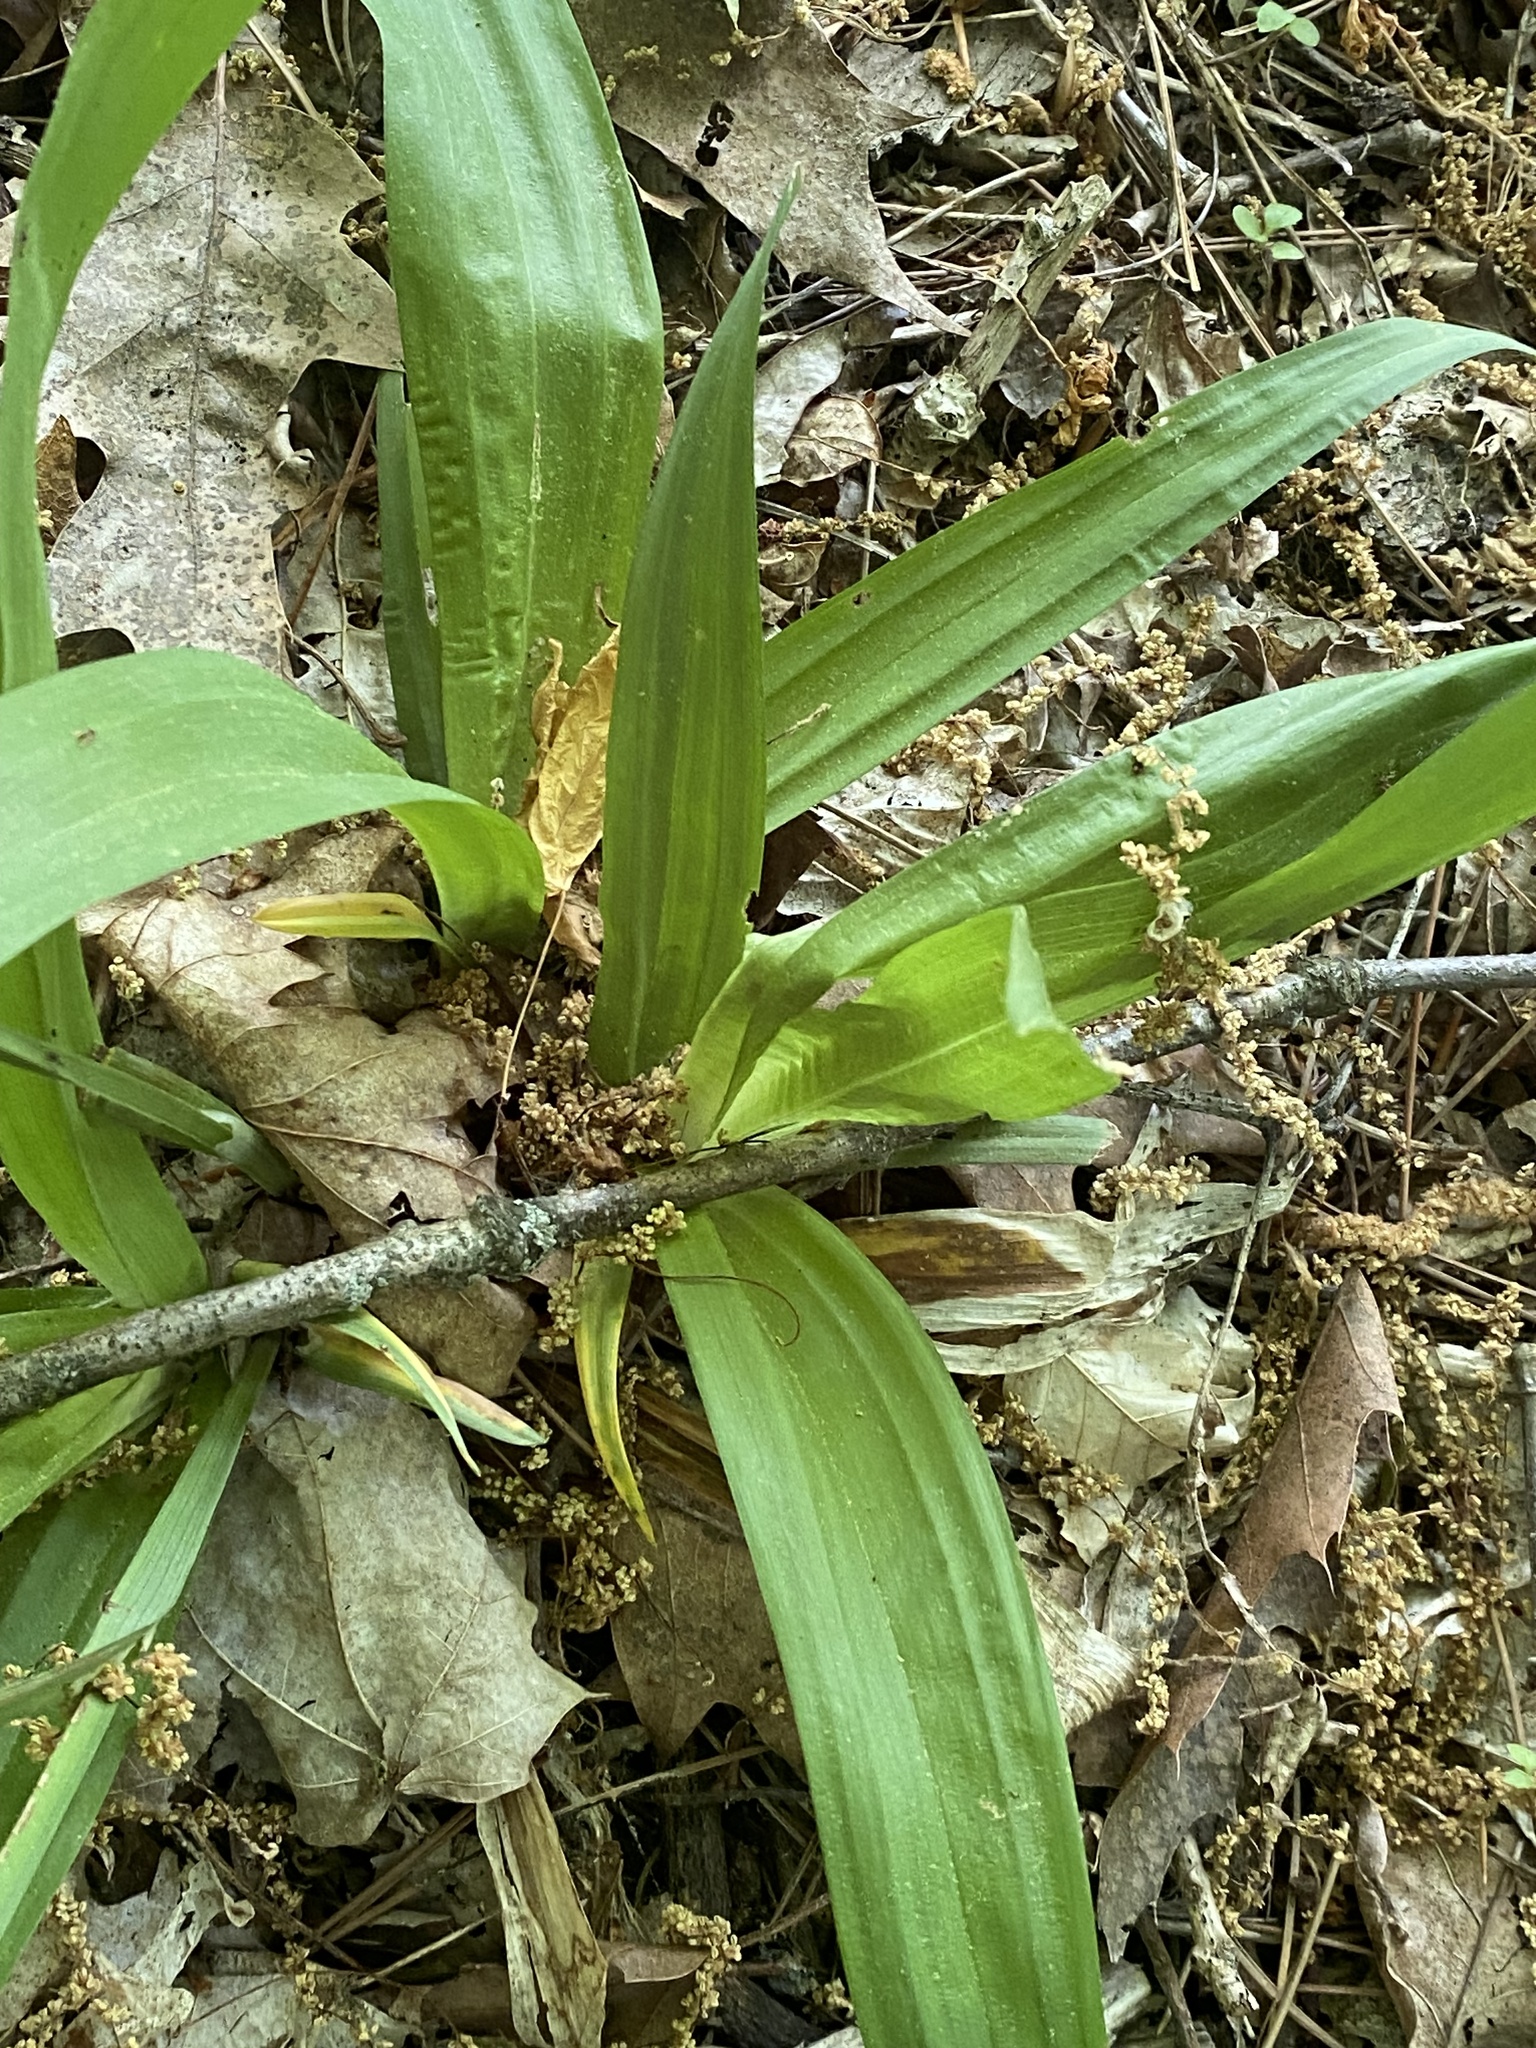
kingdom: Plantae
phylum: Tracheophyta
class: Liliopsida
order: Poales
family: Cyperaceae
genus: Carex
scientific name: Carex albursina
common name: Blunt-scale wood sedge
